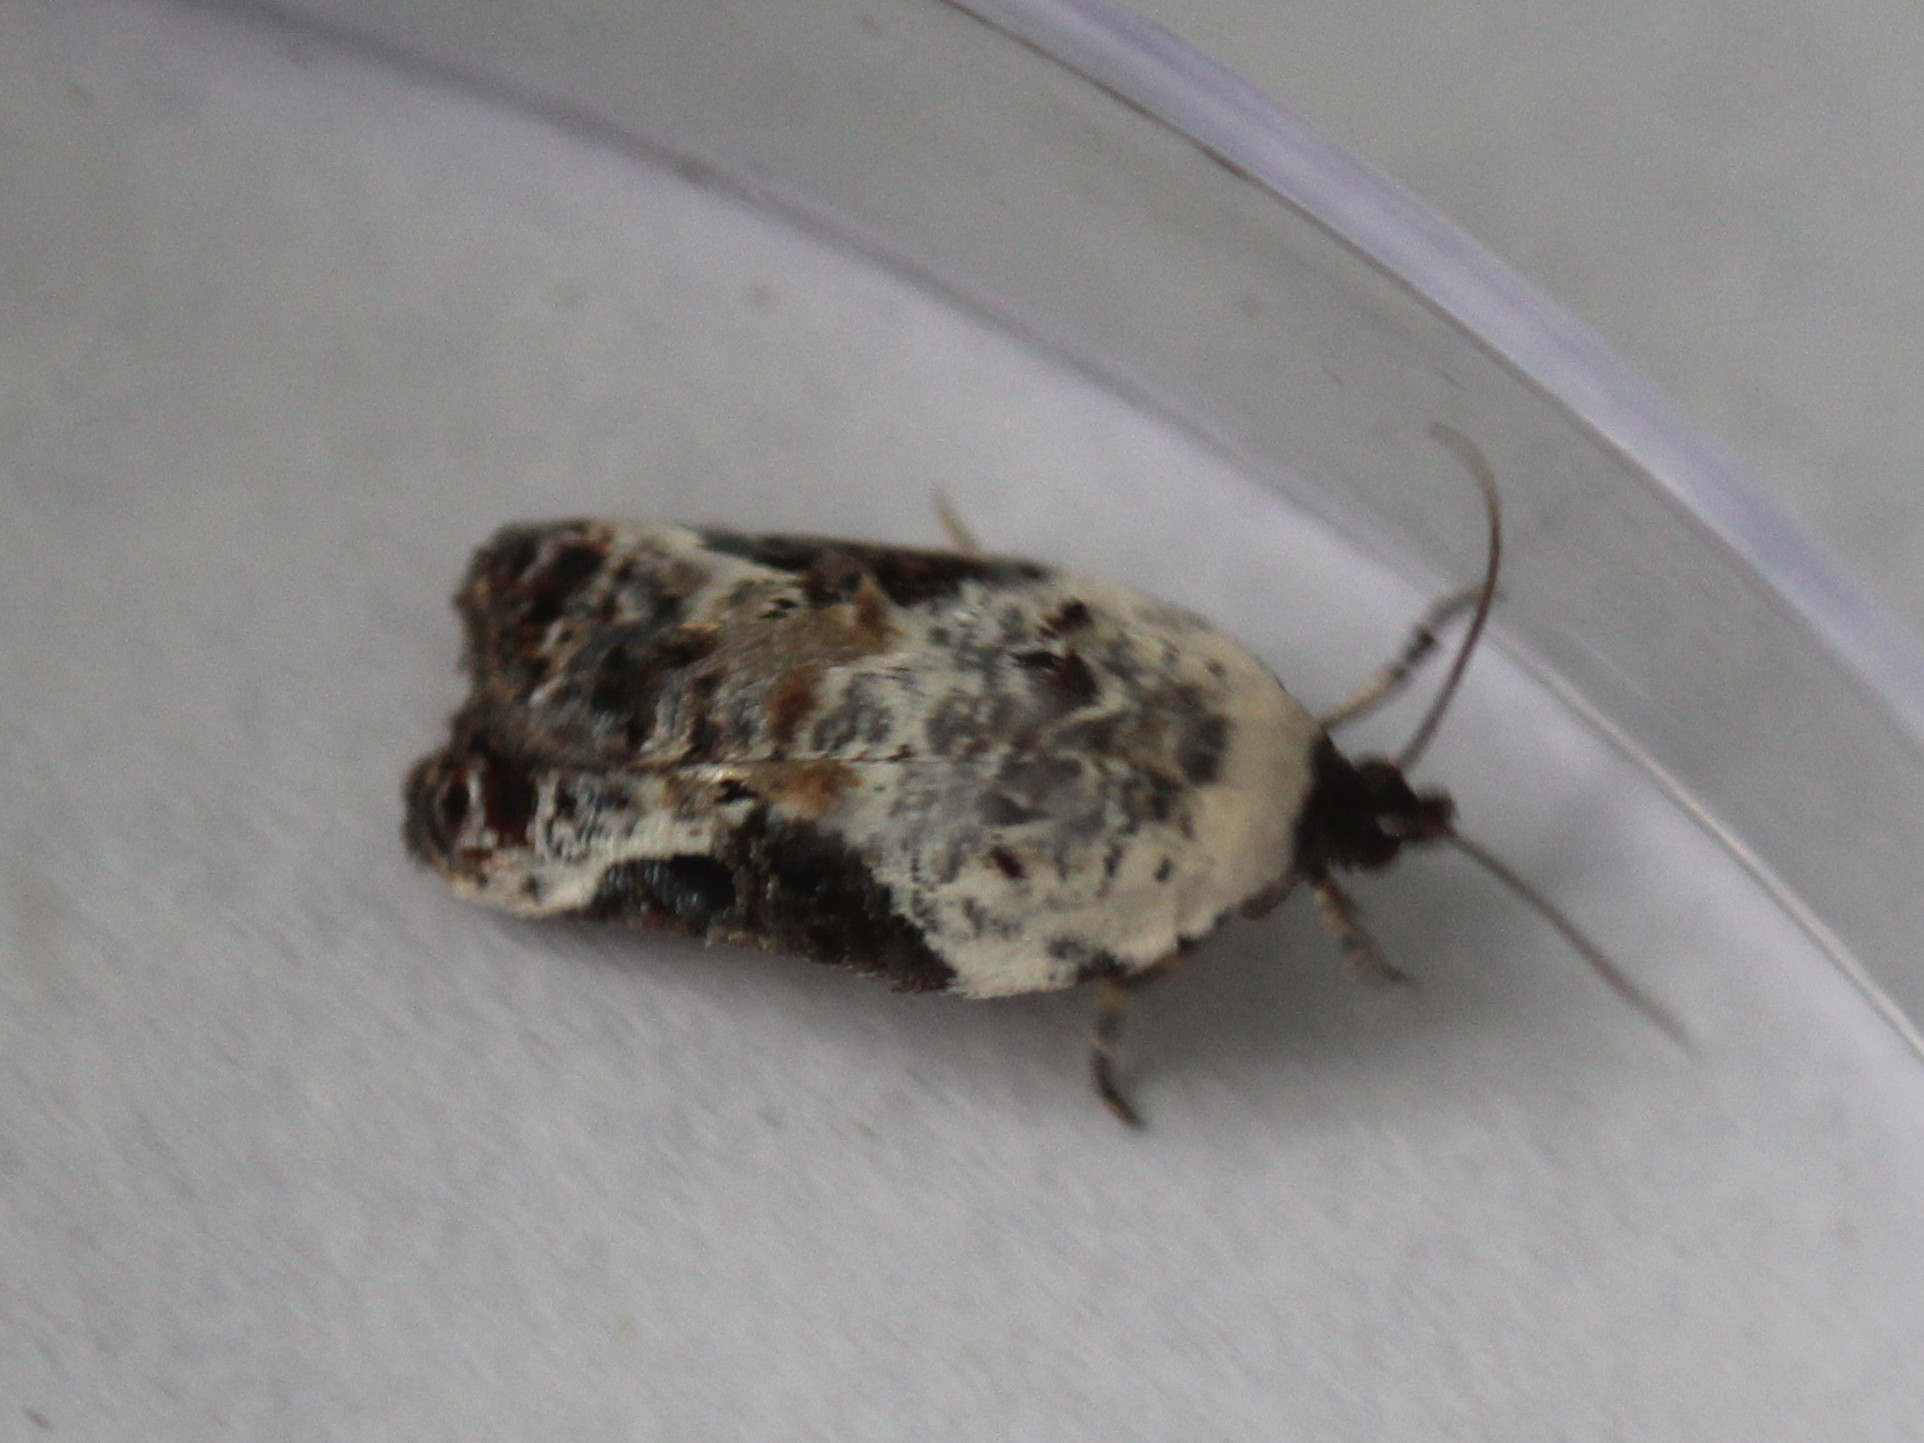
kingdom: Animalia
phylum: Arthropoda
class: Insecta
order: Lepidoptera
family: Tortricidae
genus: Acleris
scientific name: Acleris nivisellana
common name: Snowy-shouldered acleris moth
